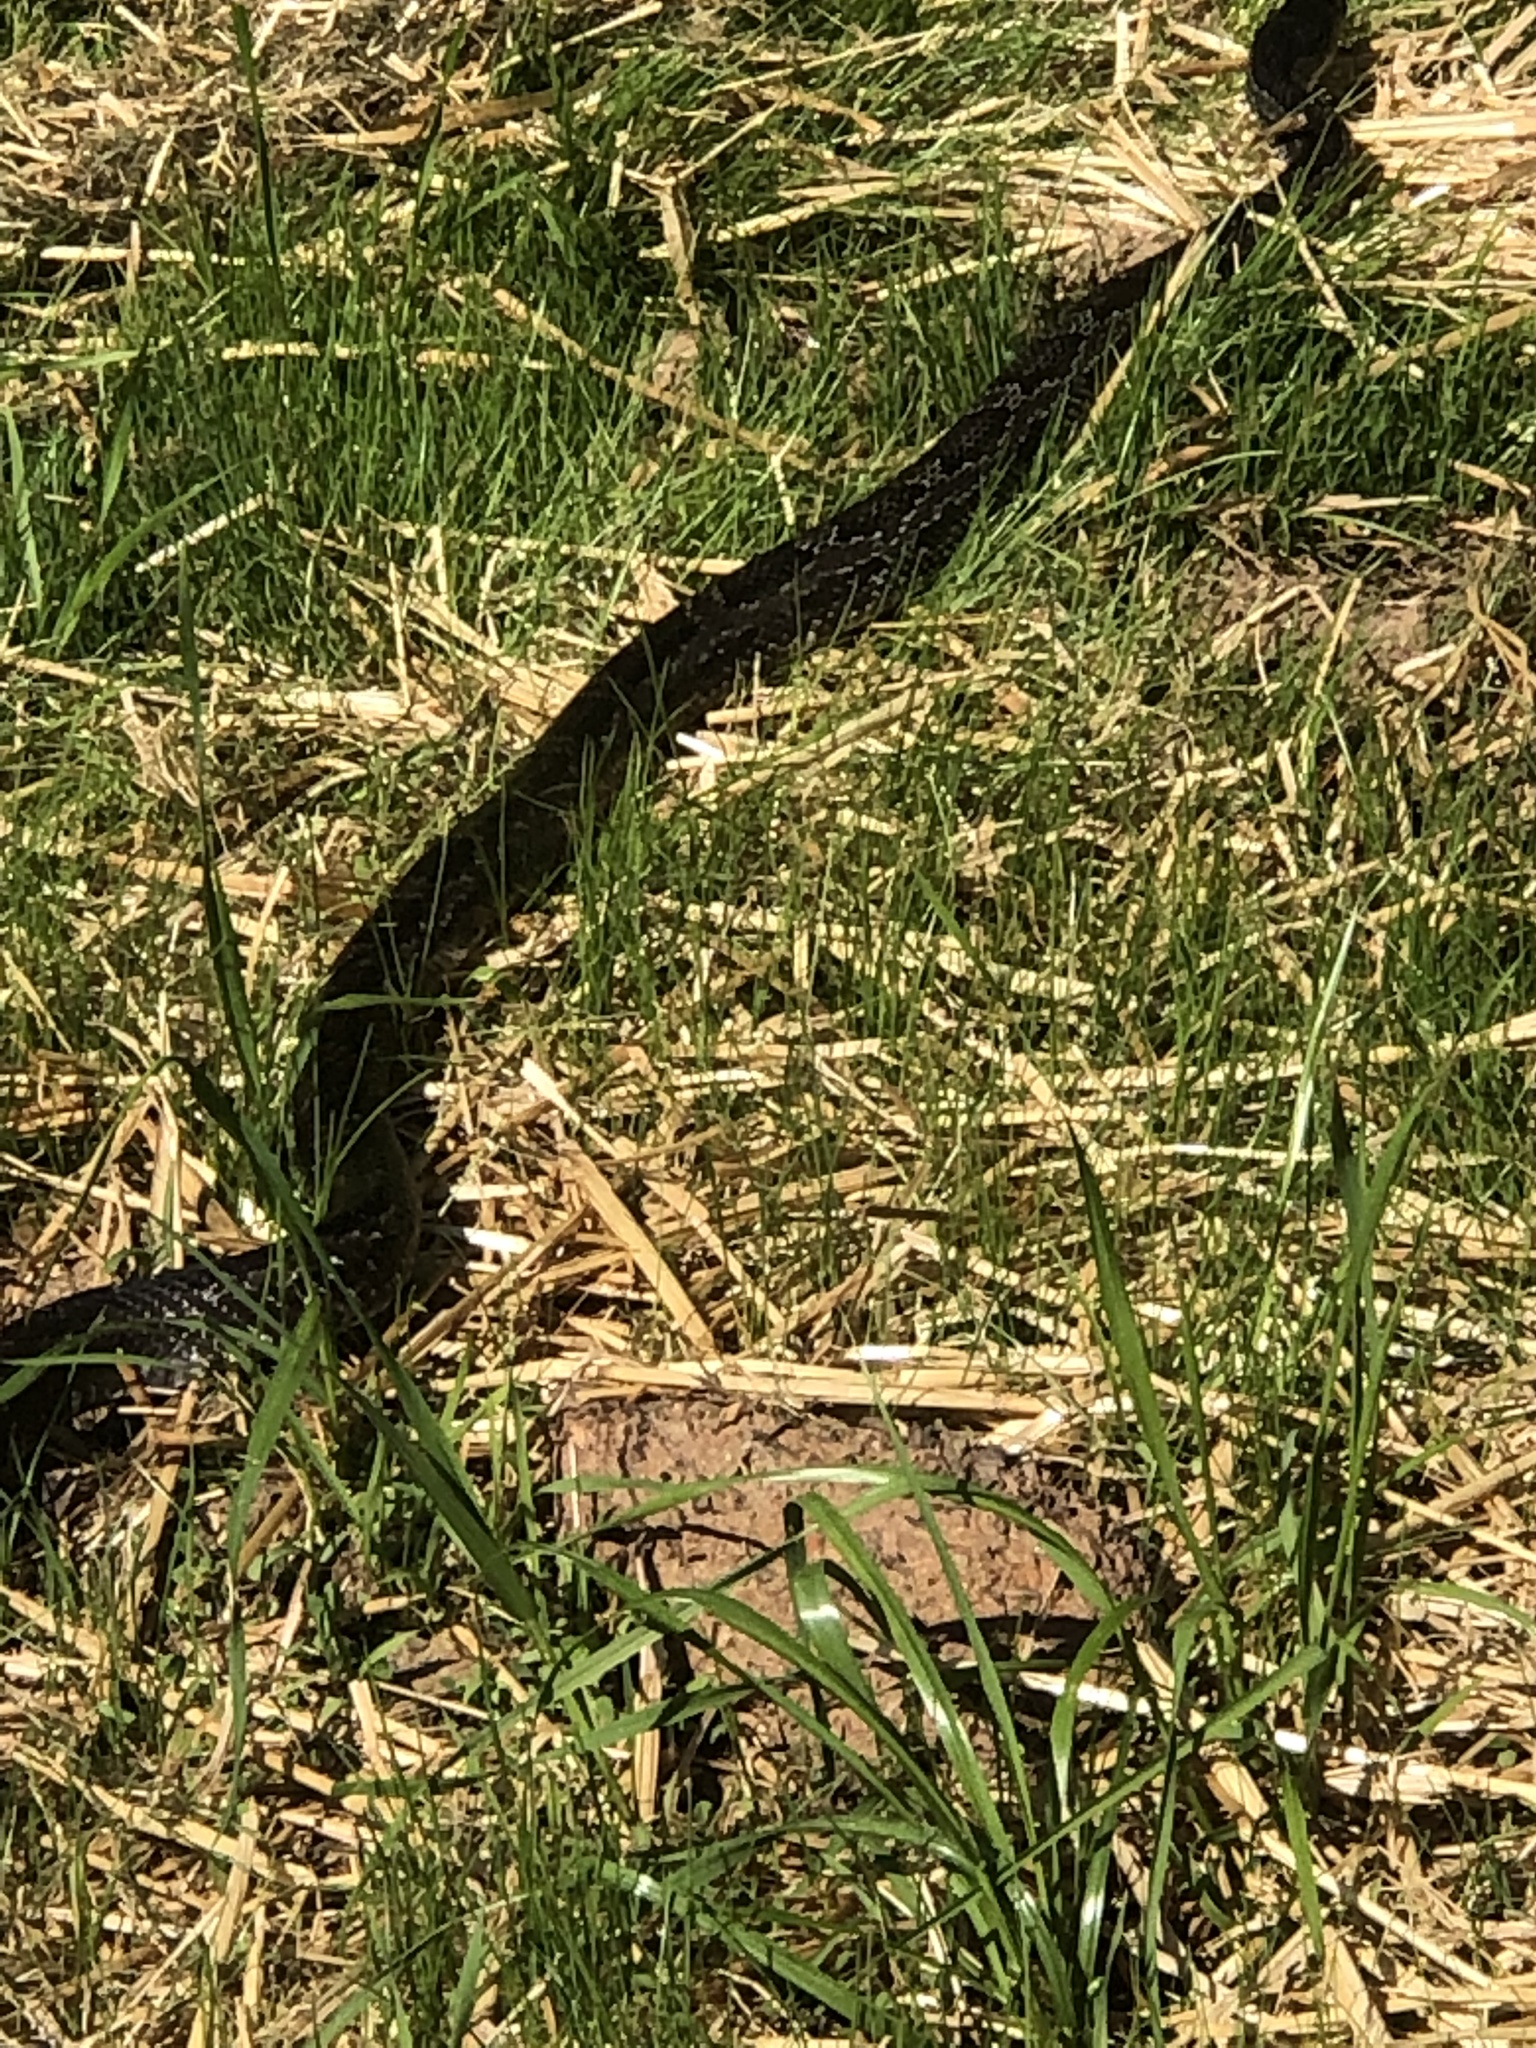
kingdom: Animalia
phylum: Chordata
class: Squamata
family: Colubridae
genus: Pantherophis
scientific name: Pantherophis spiloides
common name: Gray rat snake
